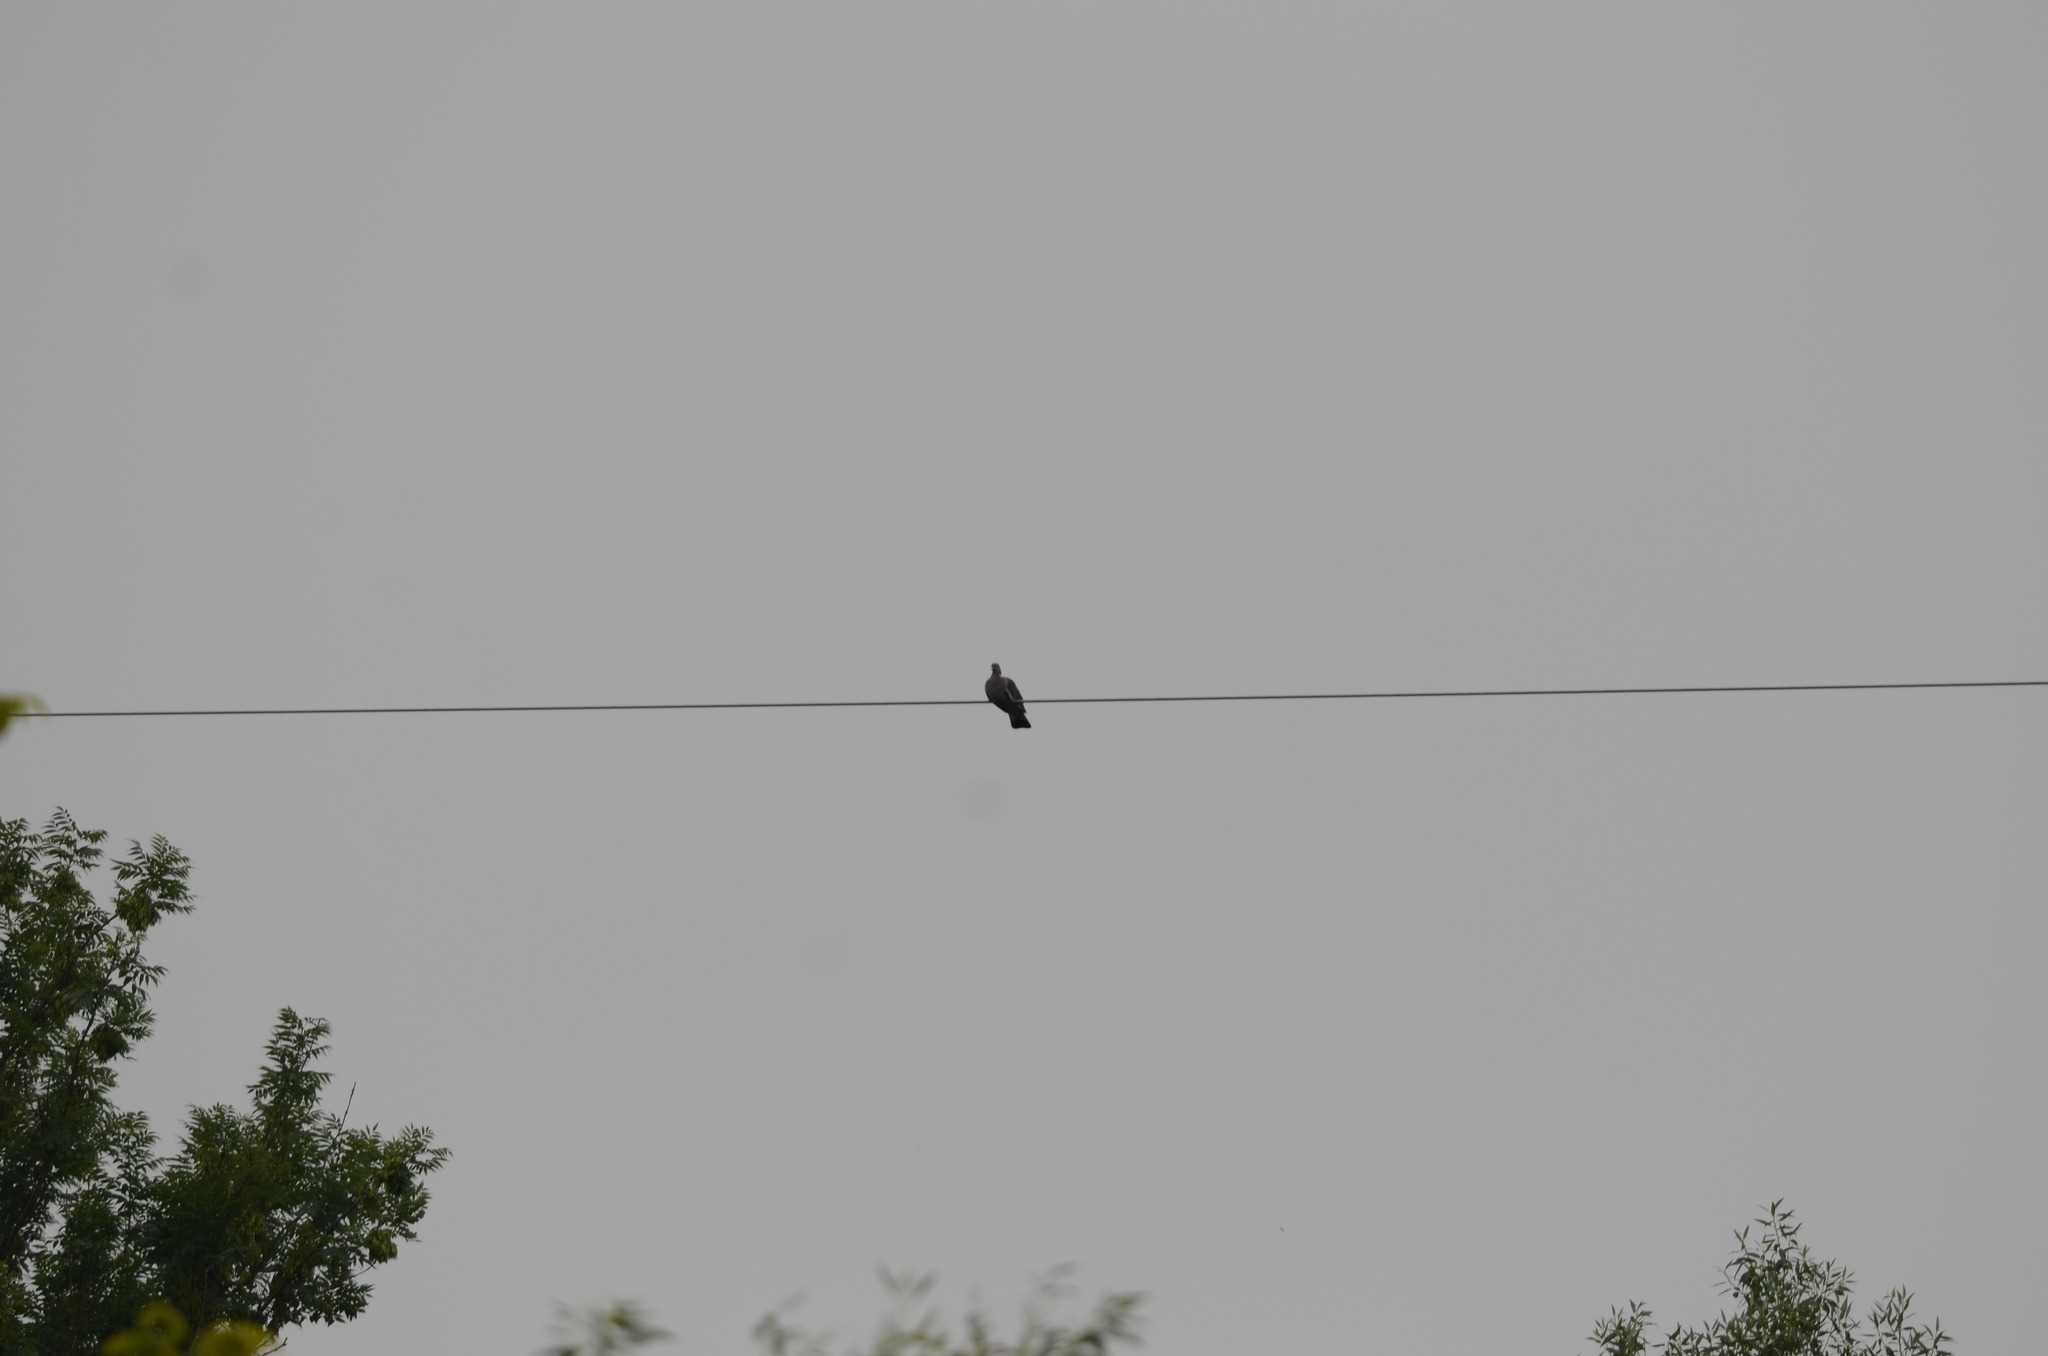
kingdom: Animalia
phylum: Chordata
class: Aves
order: Columbiformes
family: Columbidae
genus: Columba
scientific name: Columba palumbus
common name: Common wood pigeon
